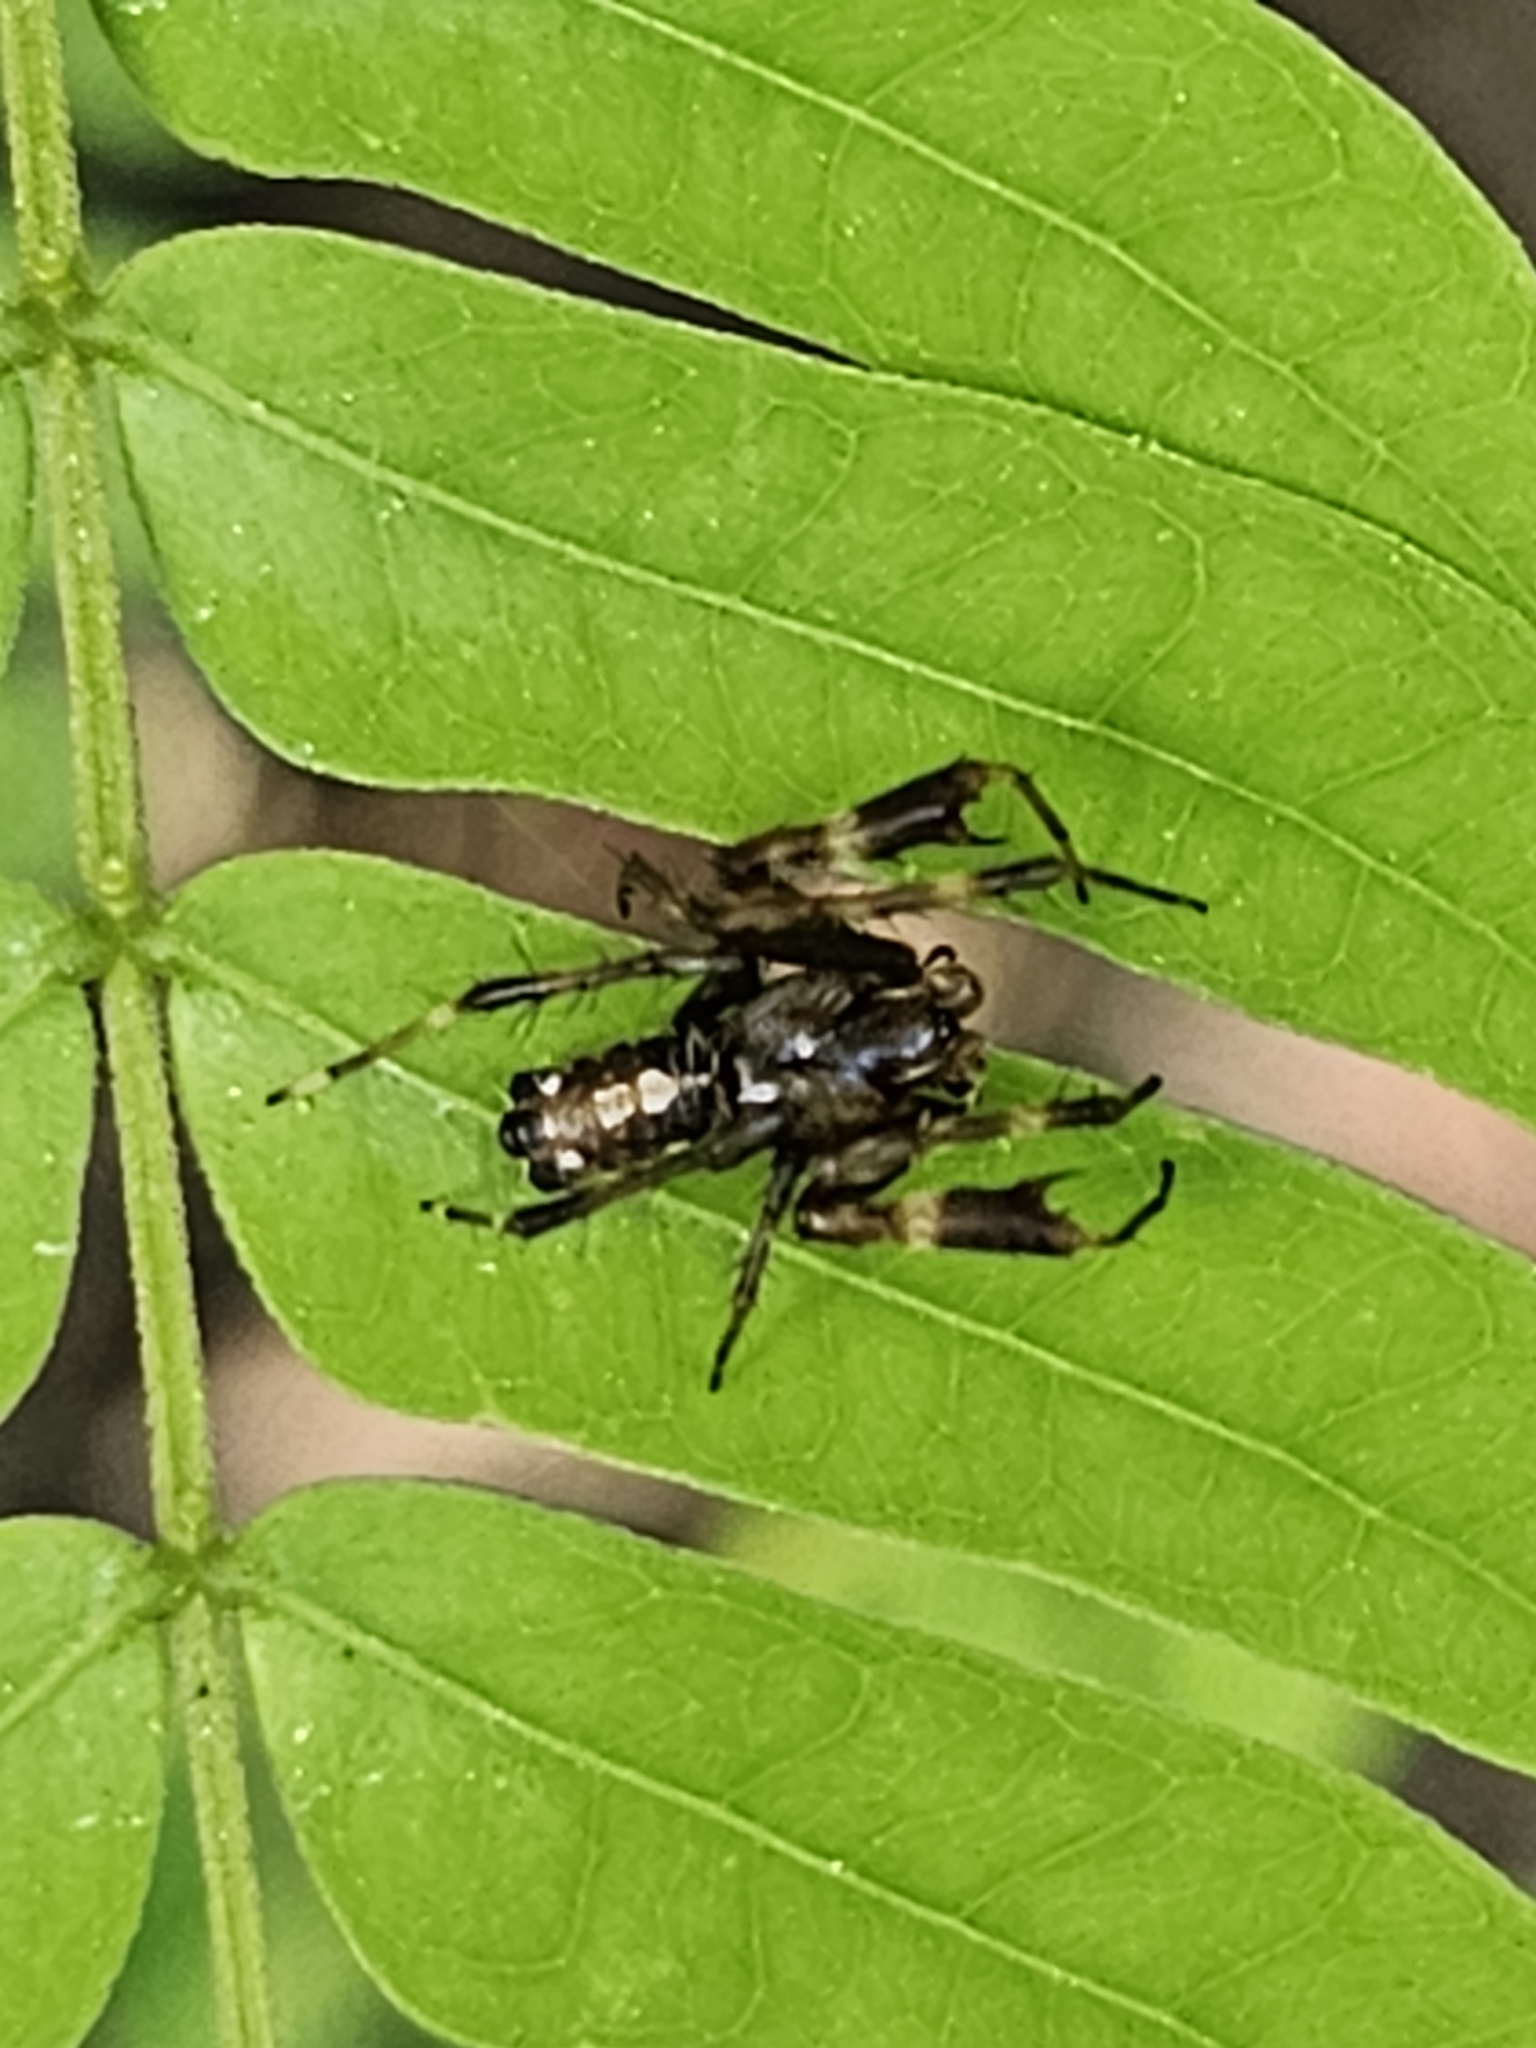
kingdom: Animalia
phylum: Arthropoda
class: Arachnida
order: Araneae
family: Araneidae
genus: Alpaida
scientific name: Alpaida truncata
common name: Orb weavers
